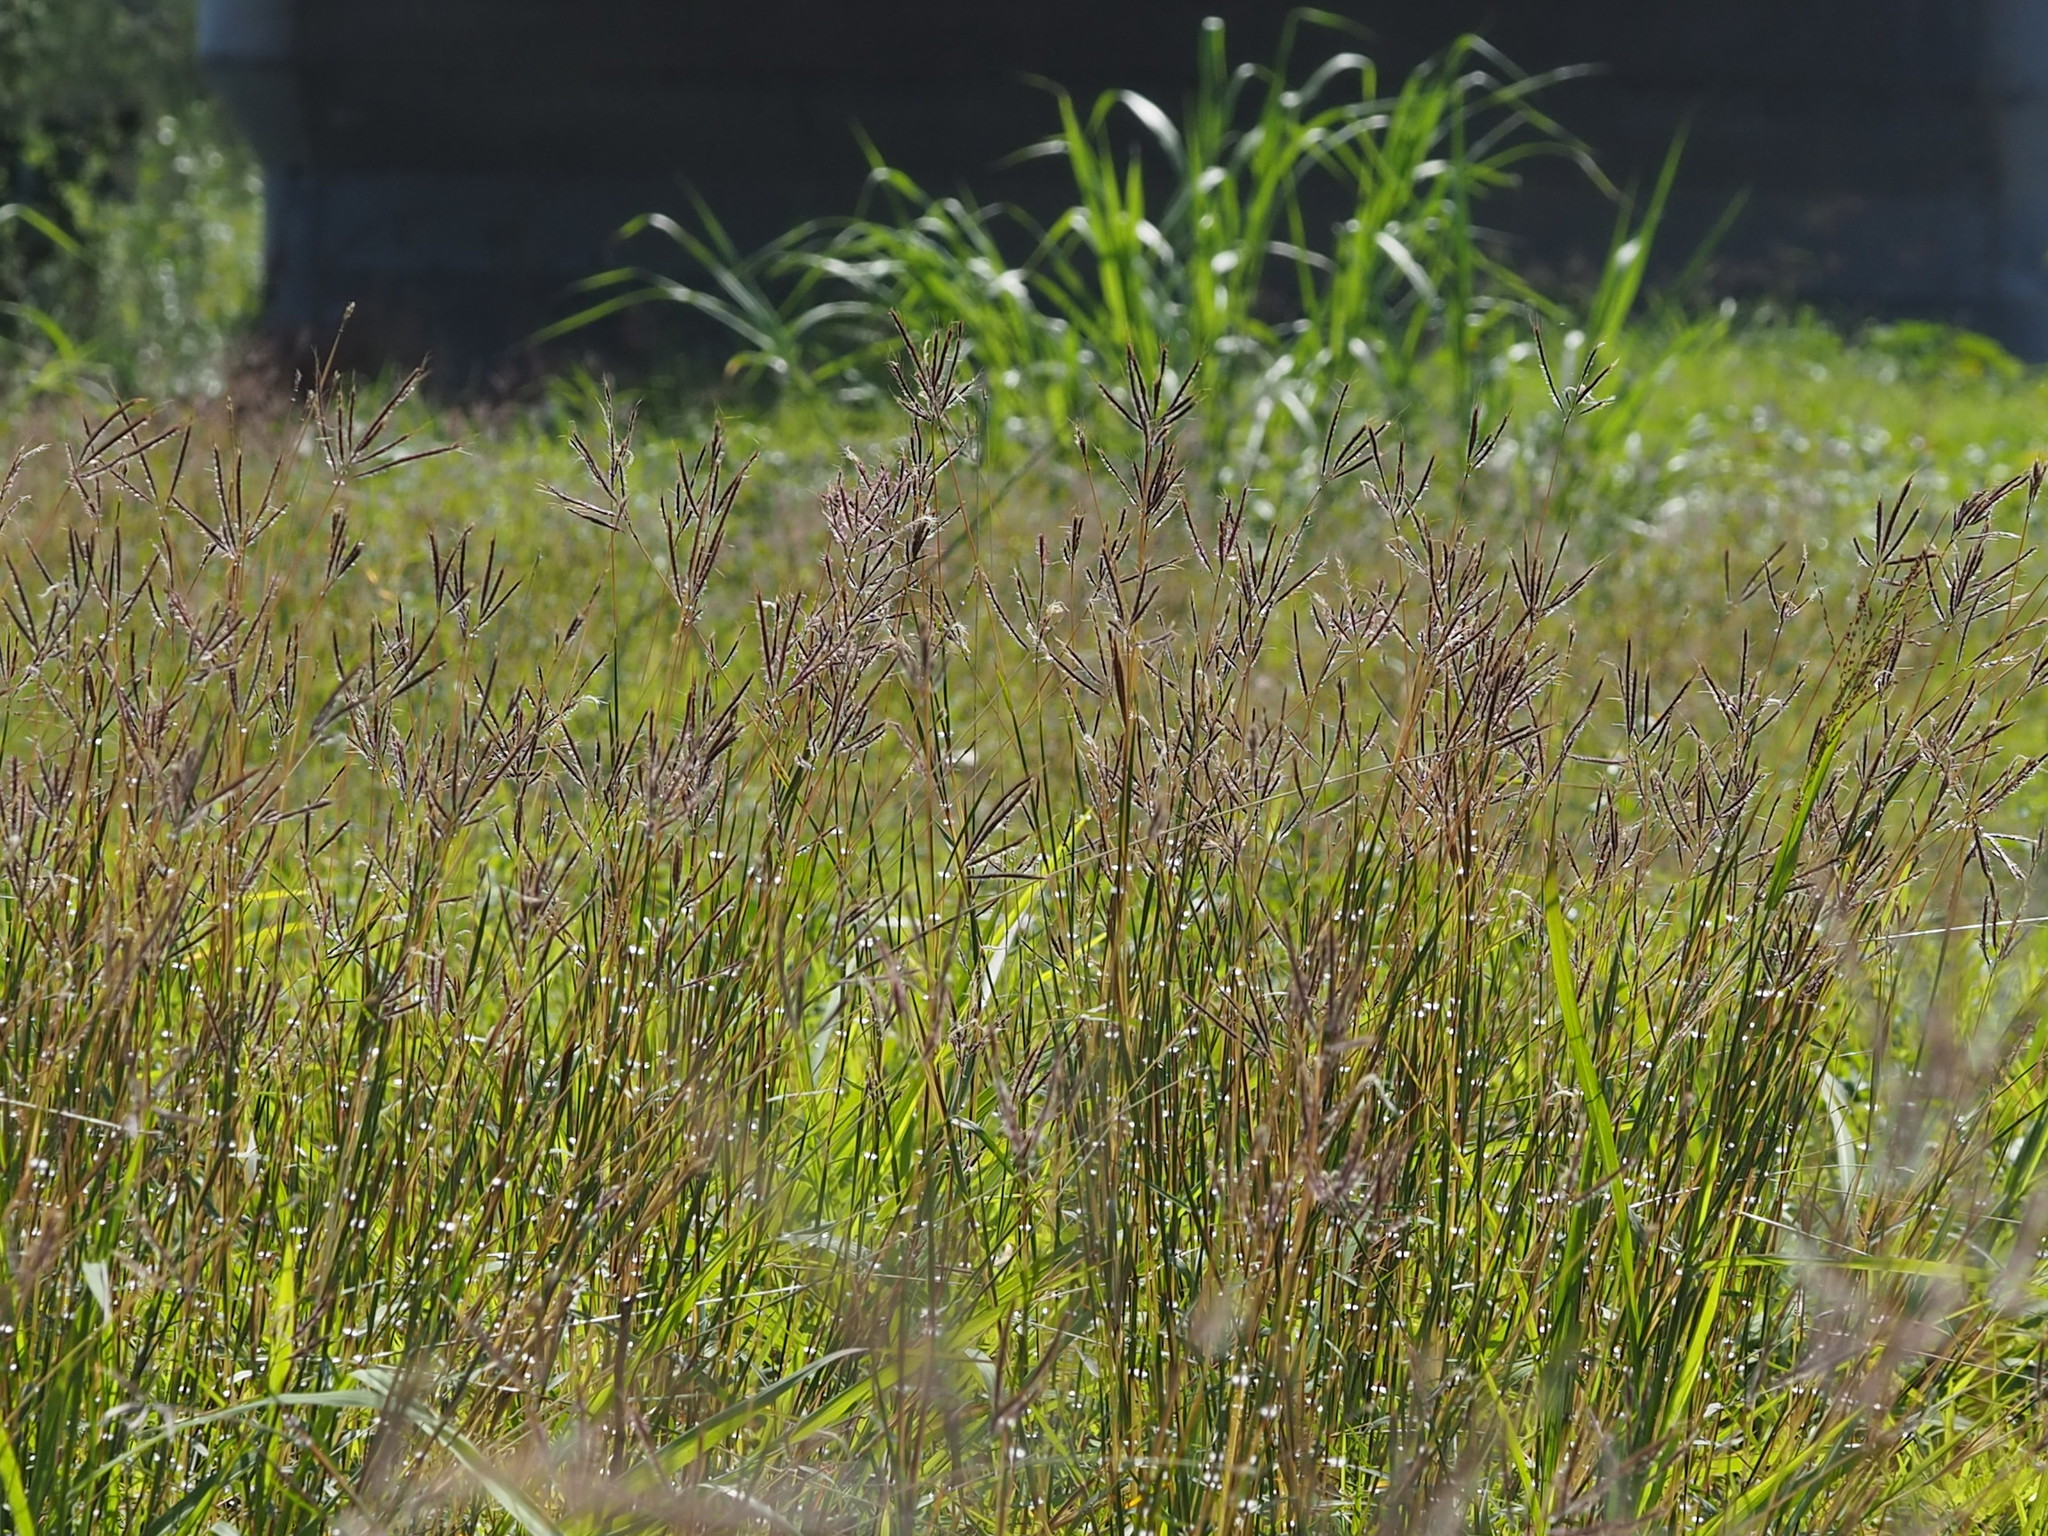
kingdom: Plantae
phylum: Tracheophyta
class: Liliopsida
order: Poales
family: Poaceae
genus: Dichanthium
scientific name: Dichanthium annulatum
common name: Kleberg's bluestem
